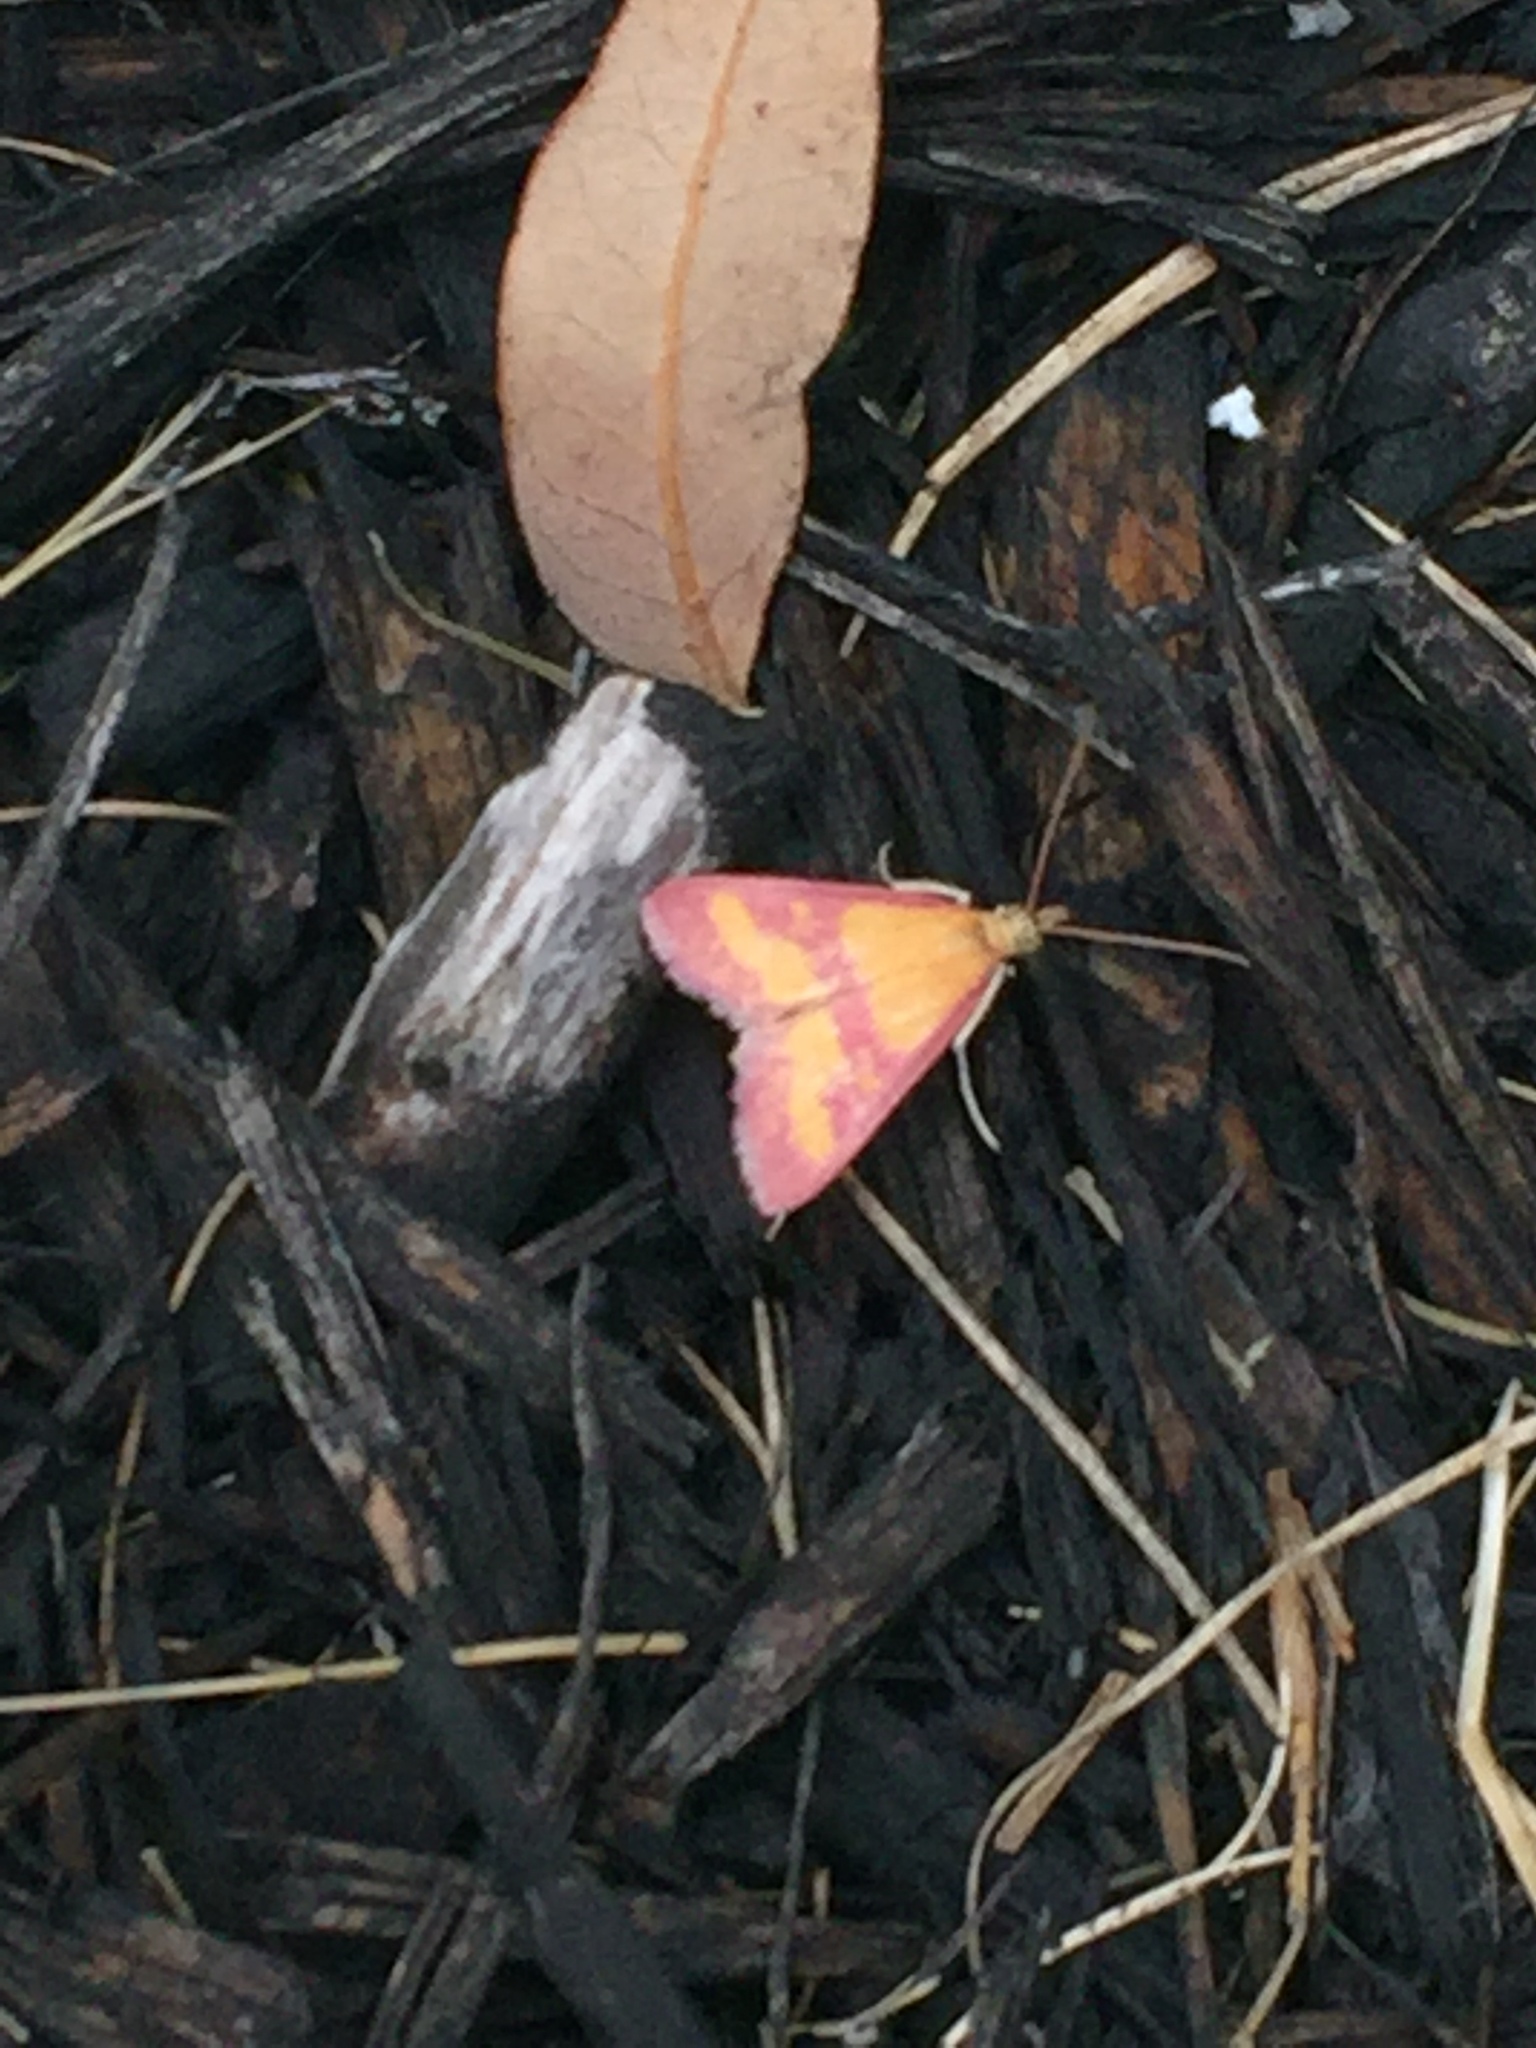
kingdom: Animalia
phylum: Arthropoda
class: Insecta
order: Lepidoptera
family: Crambidae
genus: Pyrausta
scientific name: Pyrausta laticlavia
